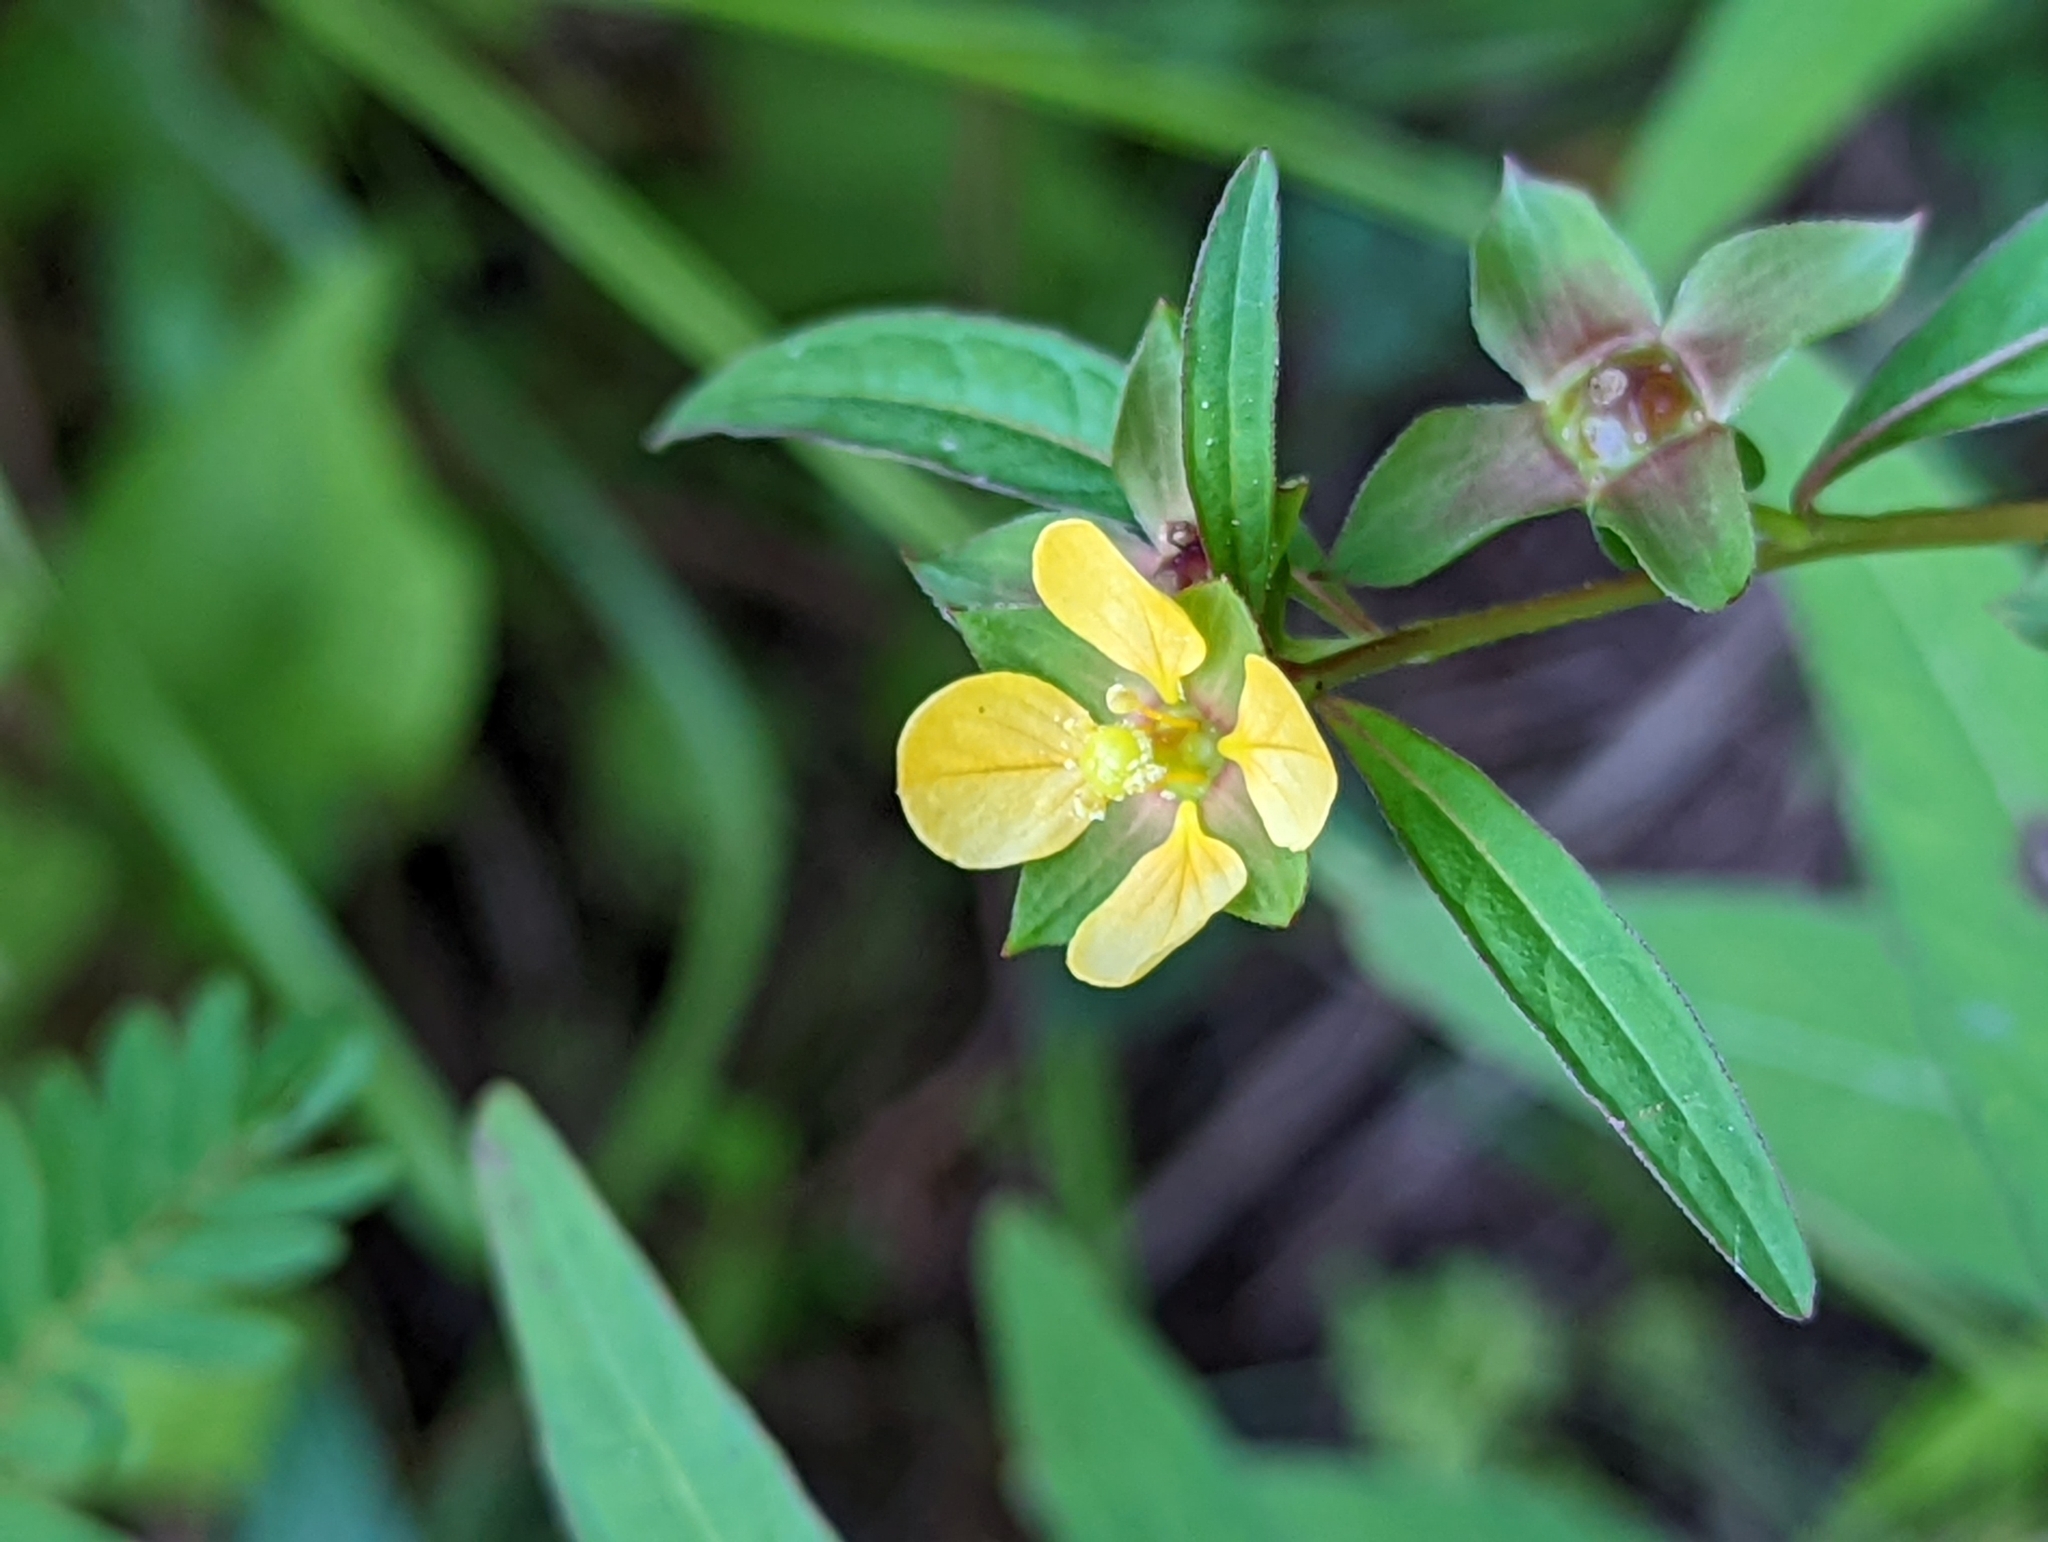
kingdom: Plantae
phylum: Tracheophyta
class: Magnoliopsida
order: Myrtales
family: Onagraceae
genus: Ludwigia
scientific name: Ludwigia alternifolia
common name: Rattlebox
